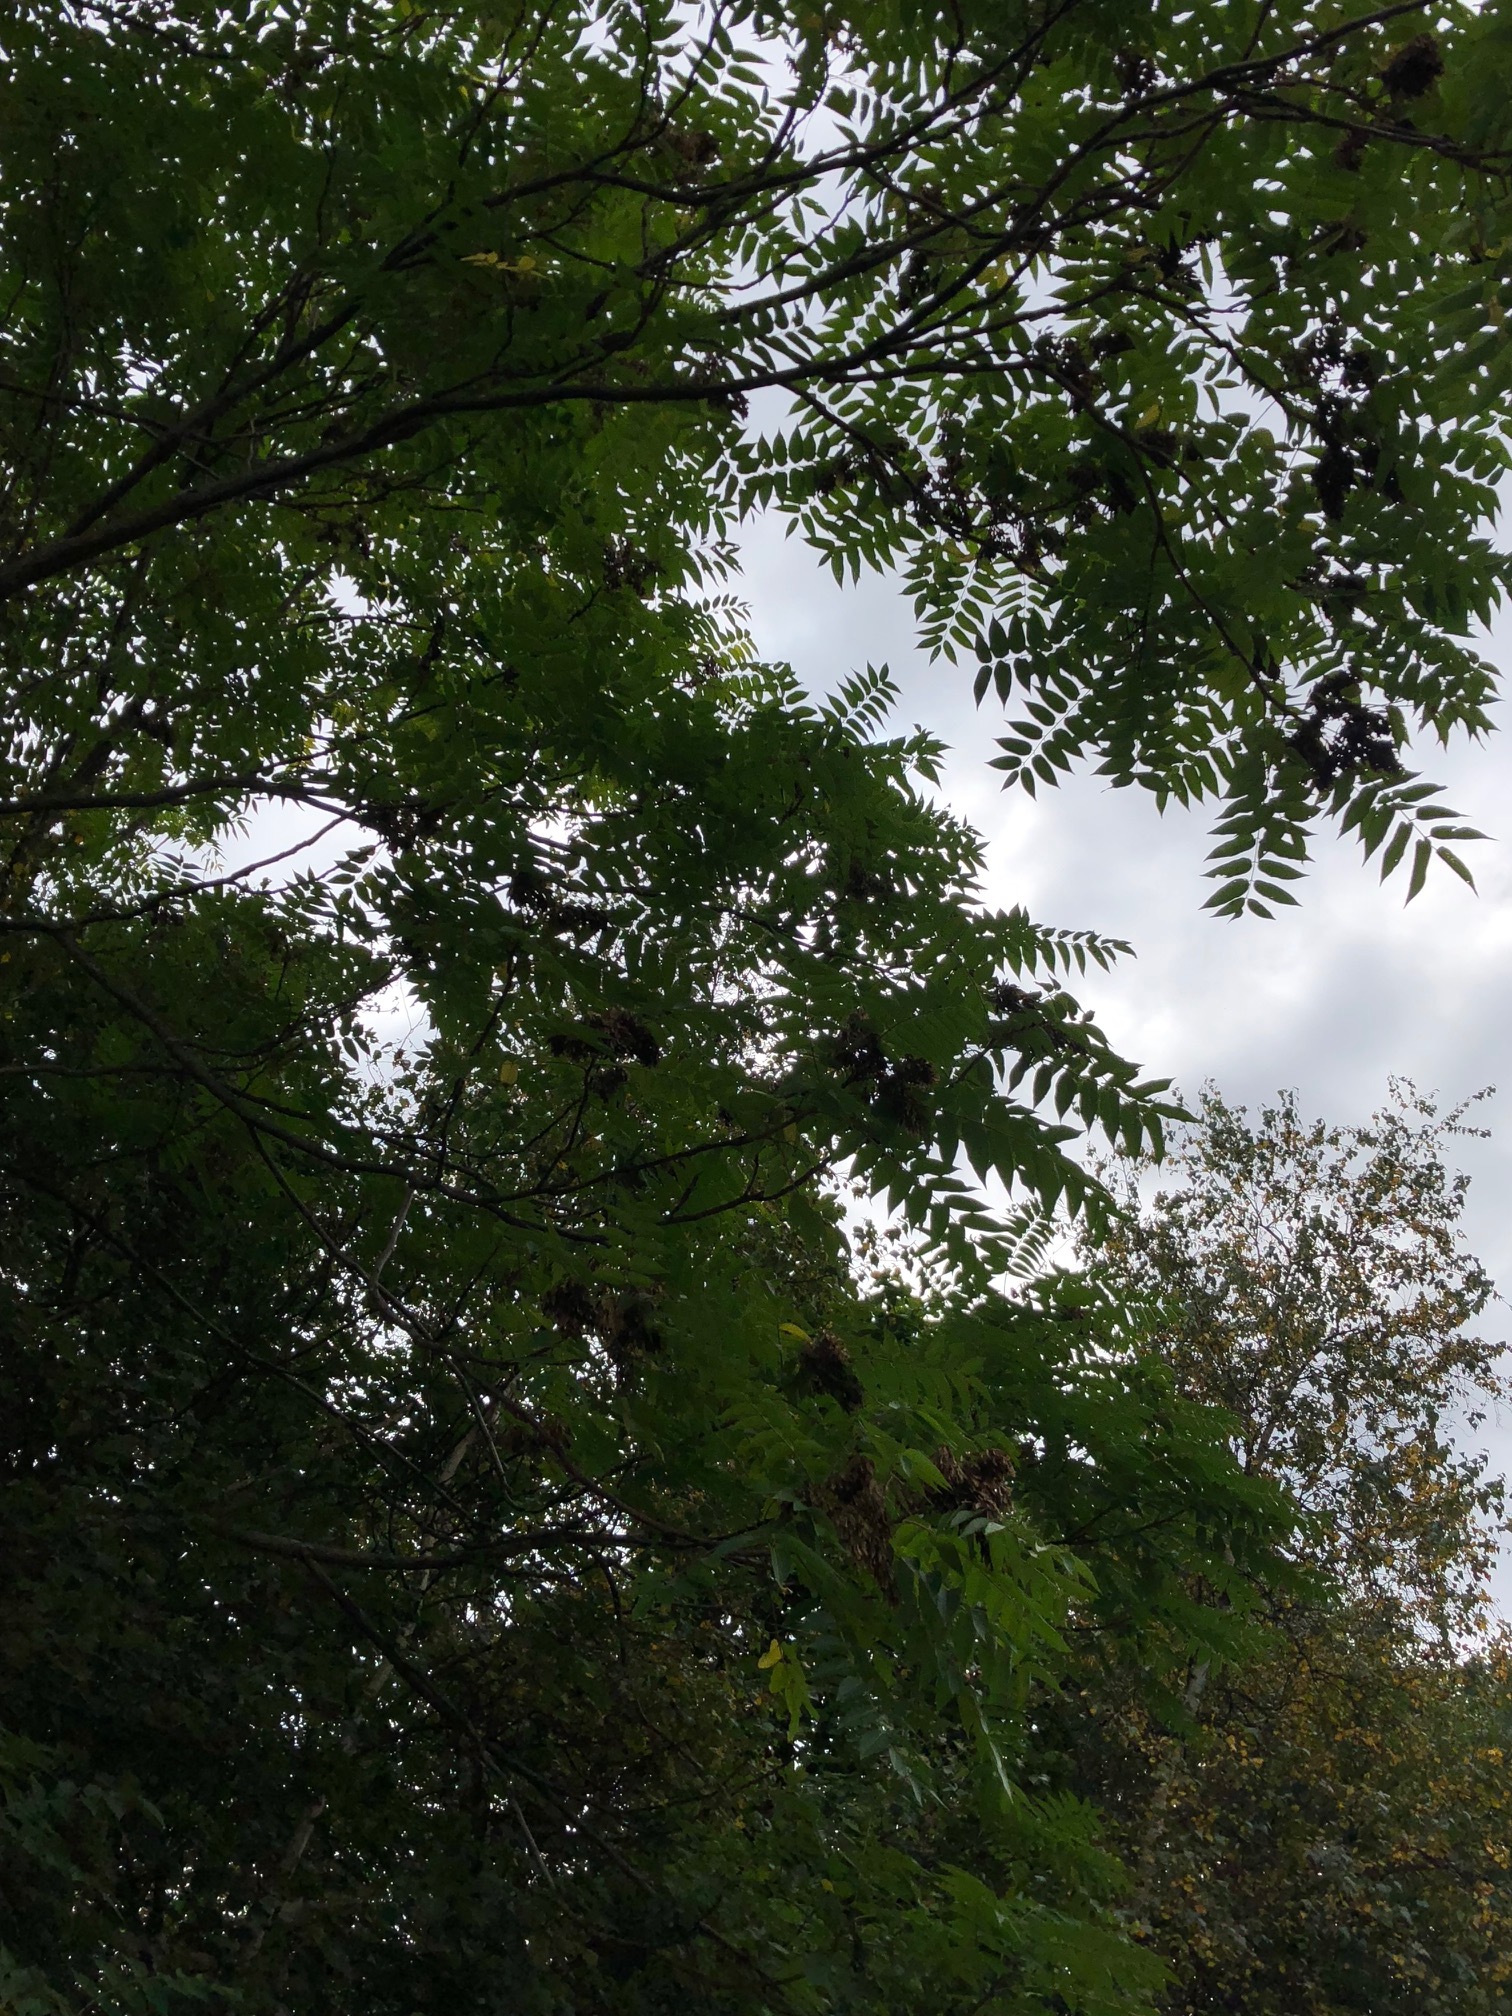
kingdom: Plantae
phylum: Tracheophyta
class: Magnoliopsida
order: Sapindales
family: Simaroubaceae
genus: Ailanthus
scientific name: Ailanthus altissima
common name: Tree-of-heaven
